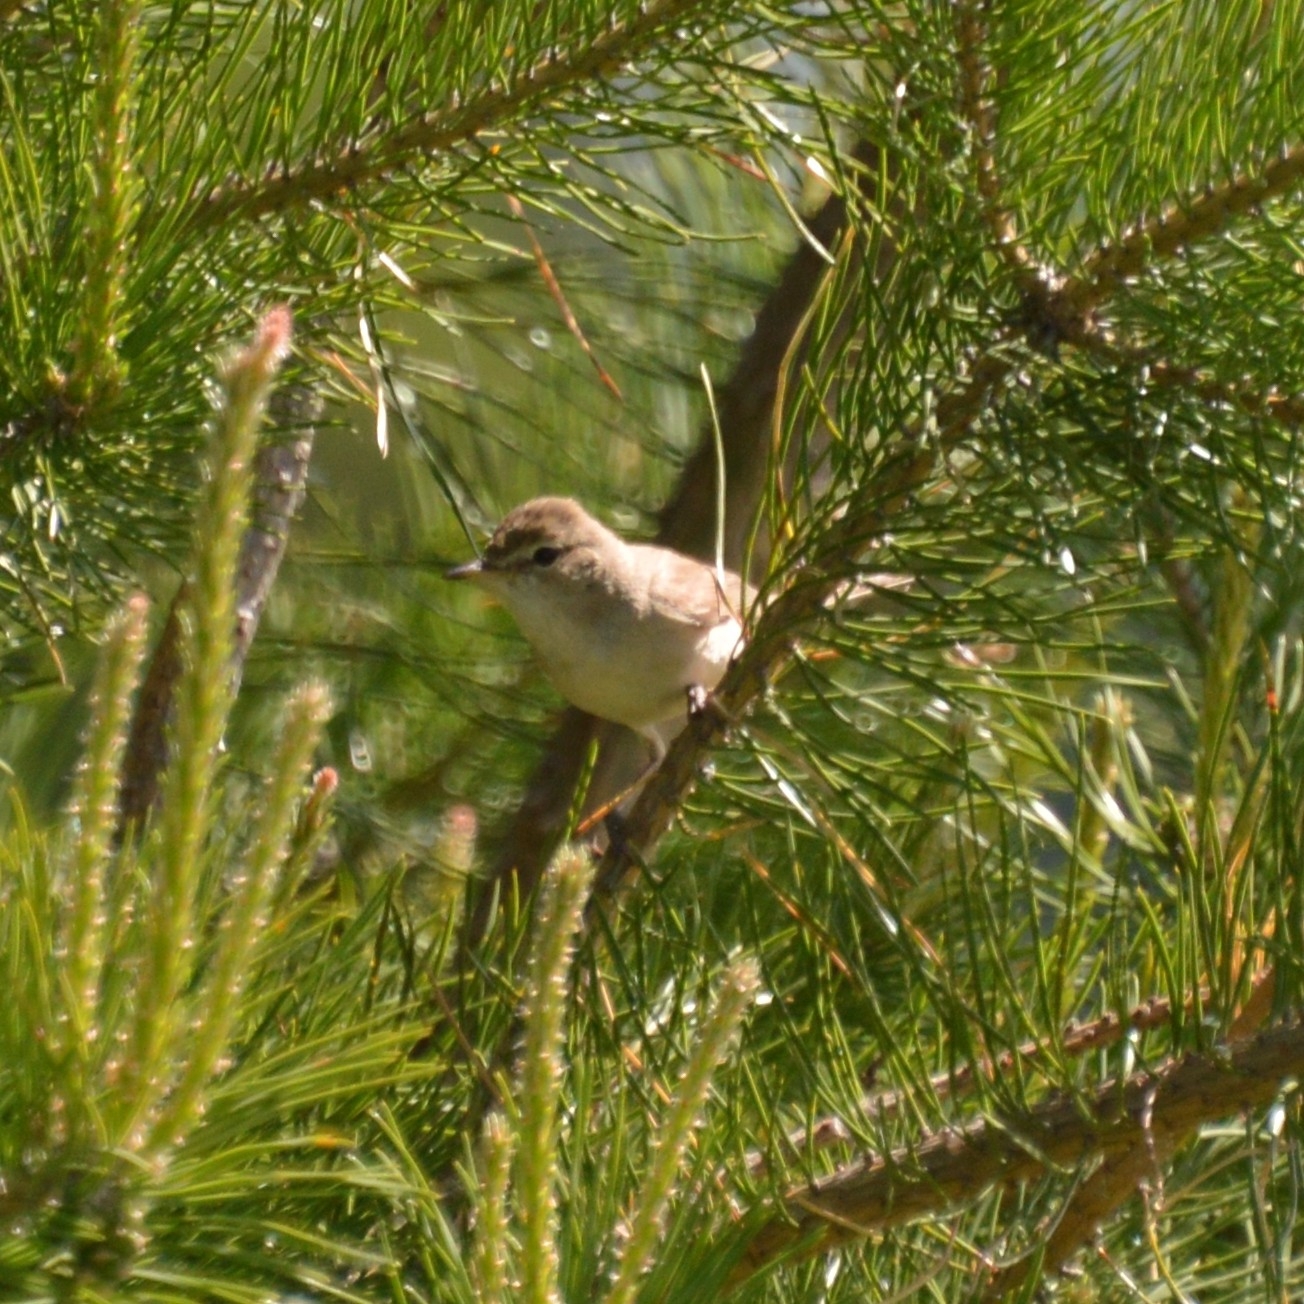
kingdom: Animalia
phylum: Chordata
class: Aves
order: Passeriformes
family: Acrocephalidae
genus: Iduna
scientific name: Iduna caligata
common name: Booted warbler
